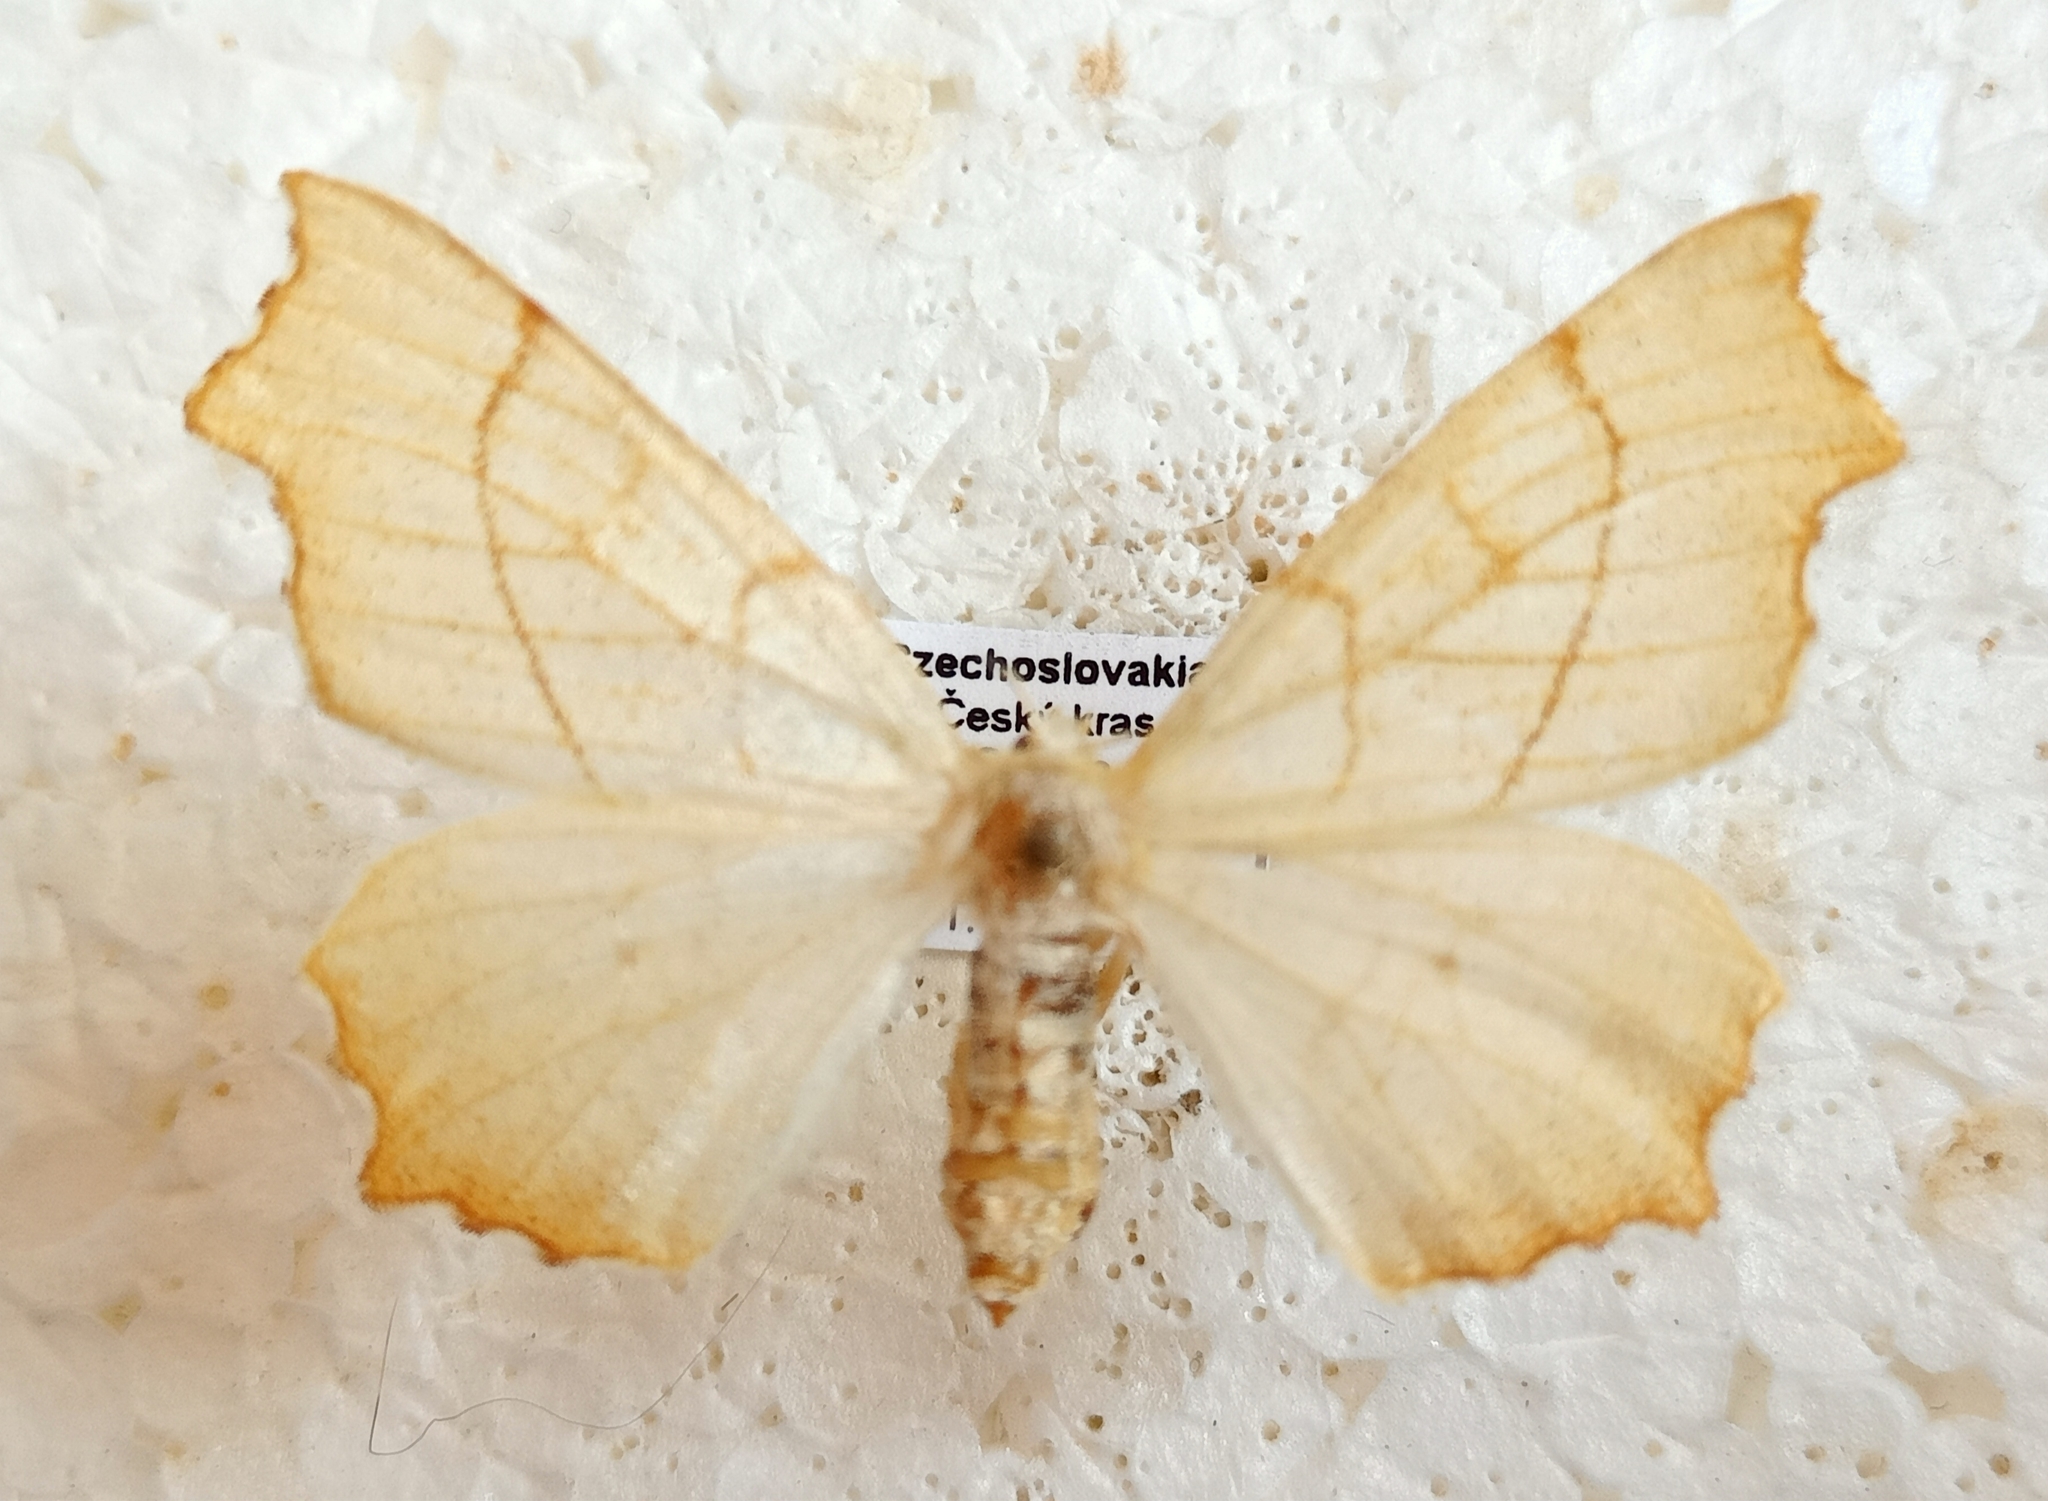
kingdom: Animalia
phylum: Arthropoda
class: Insecta
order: Lepidoptera
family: Geometridae
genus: Ennomos
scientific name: Ennomos quercinaria
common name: August thorn
